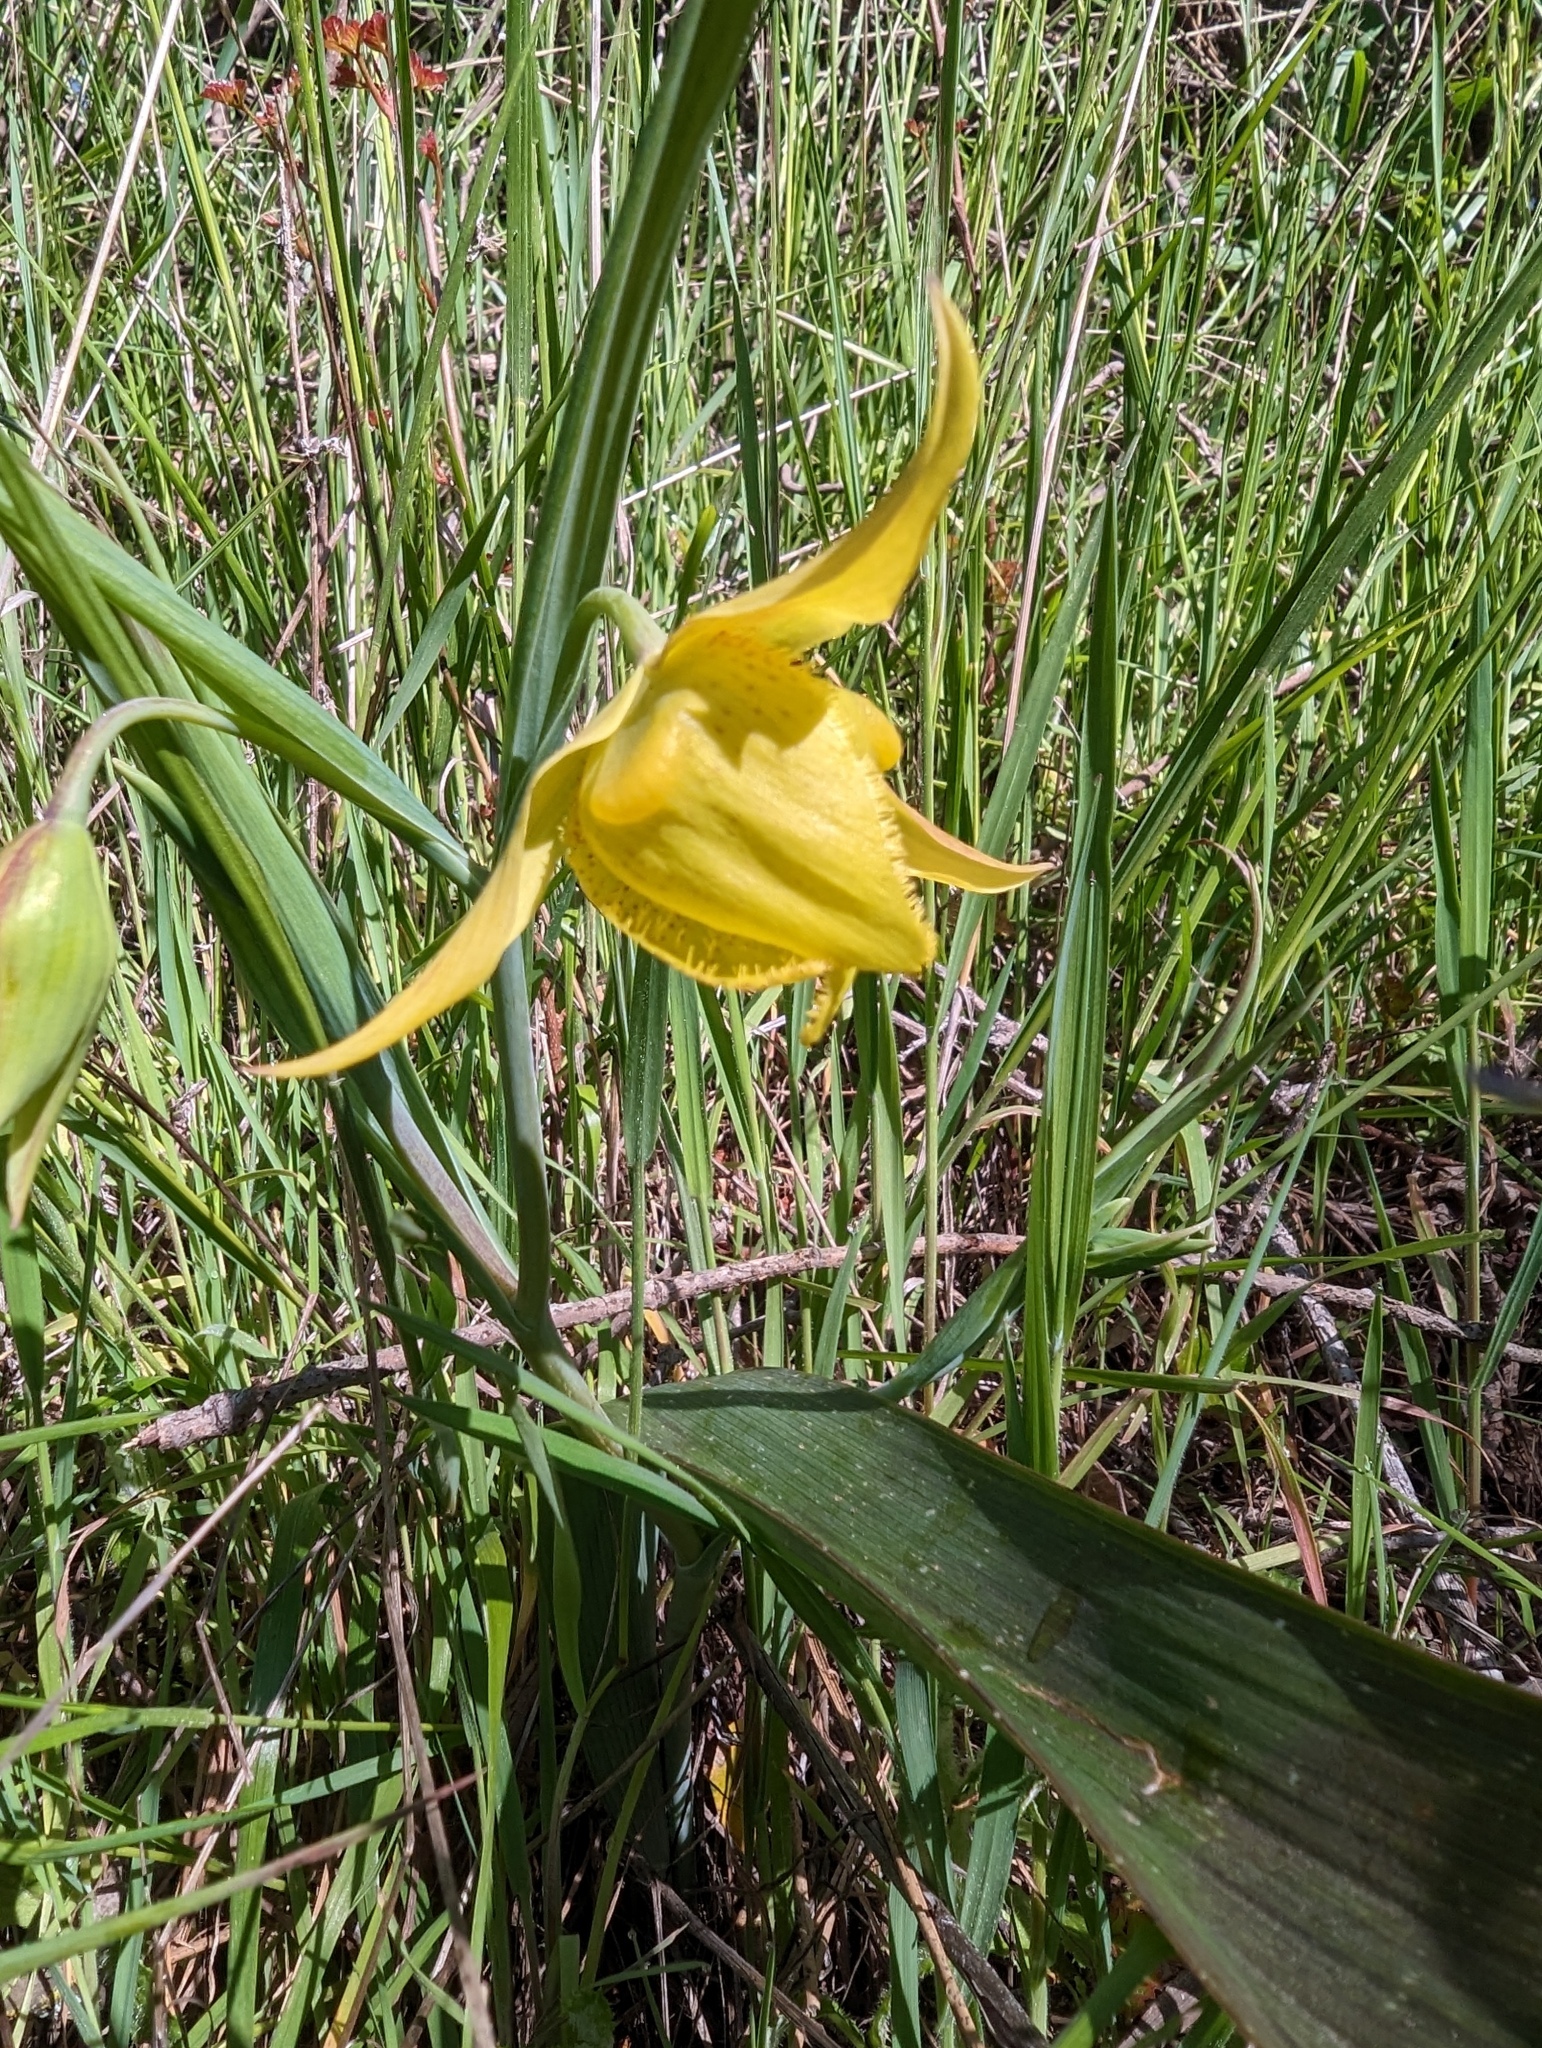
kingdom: Plantae
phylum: Tracheophyta
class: Liliopsida
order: Liliales
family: Liliaceae
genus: Calochortus
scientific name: Calochortus pulchellus
